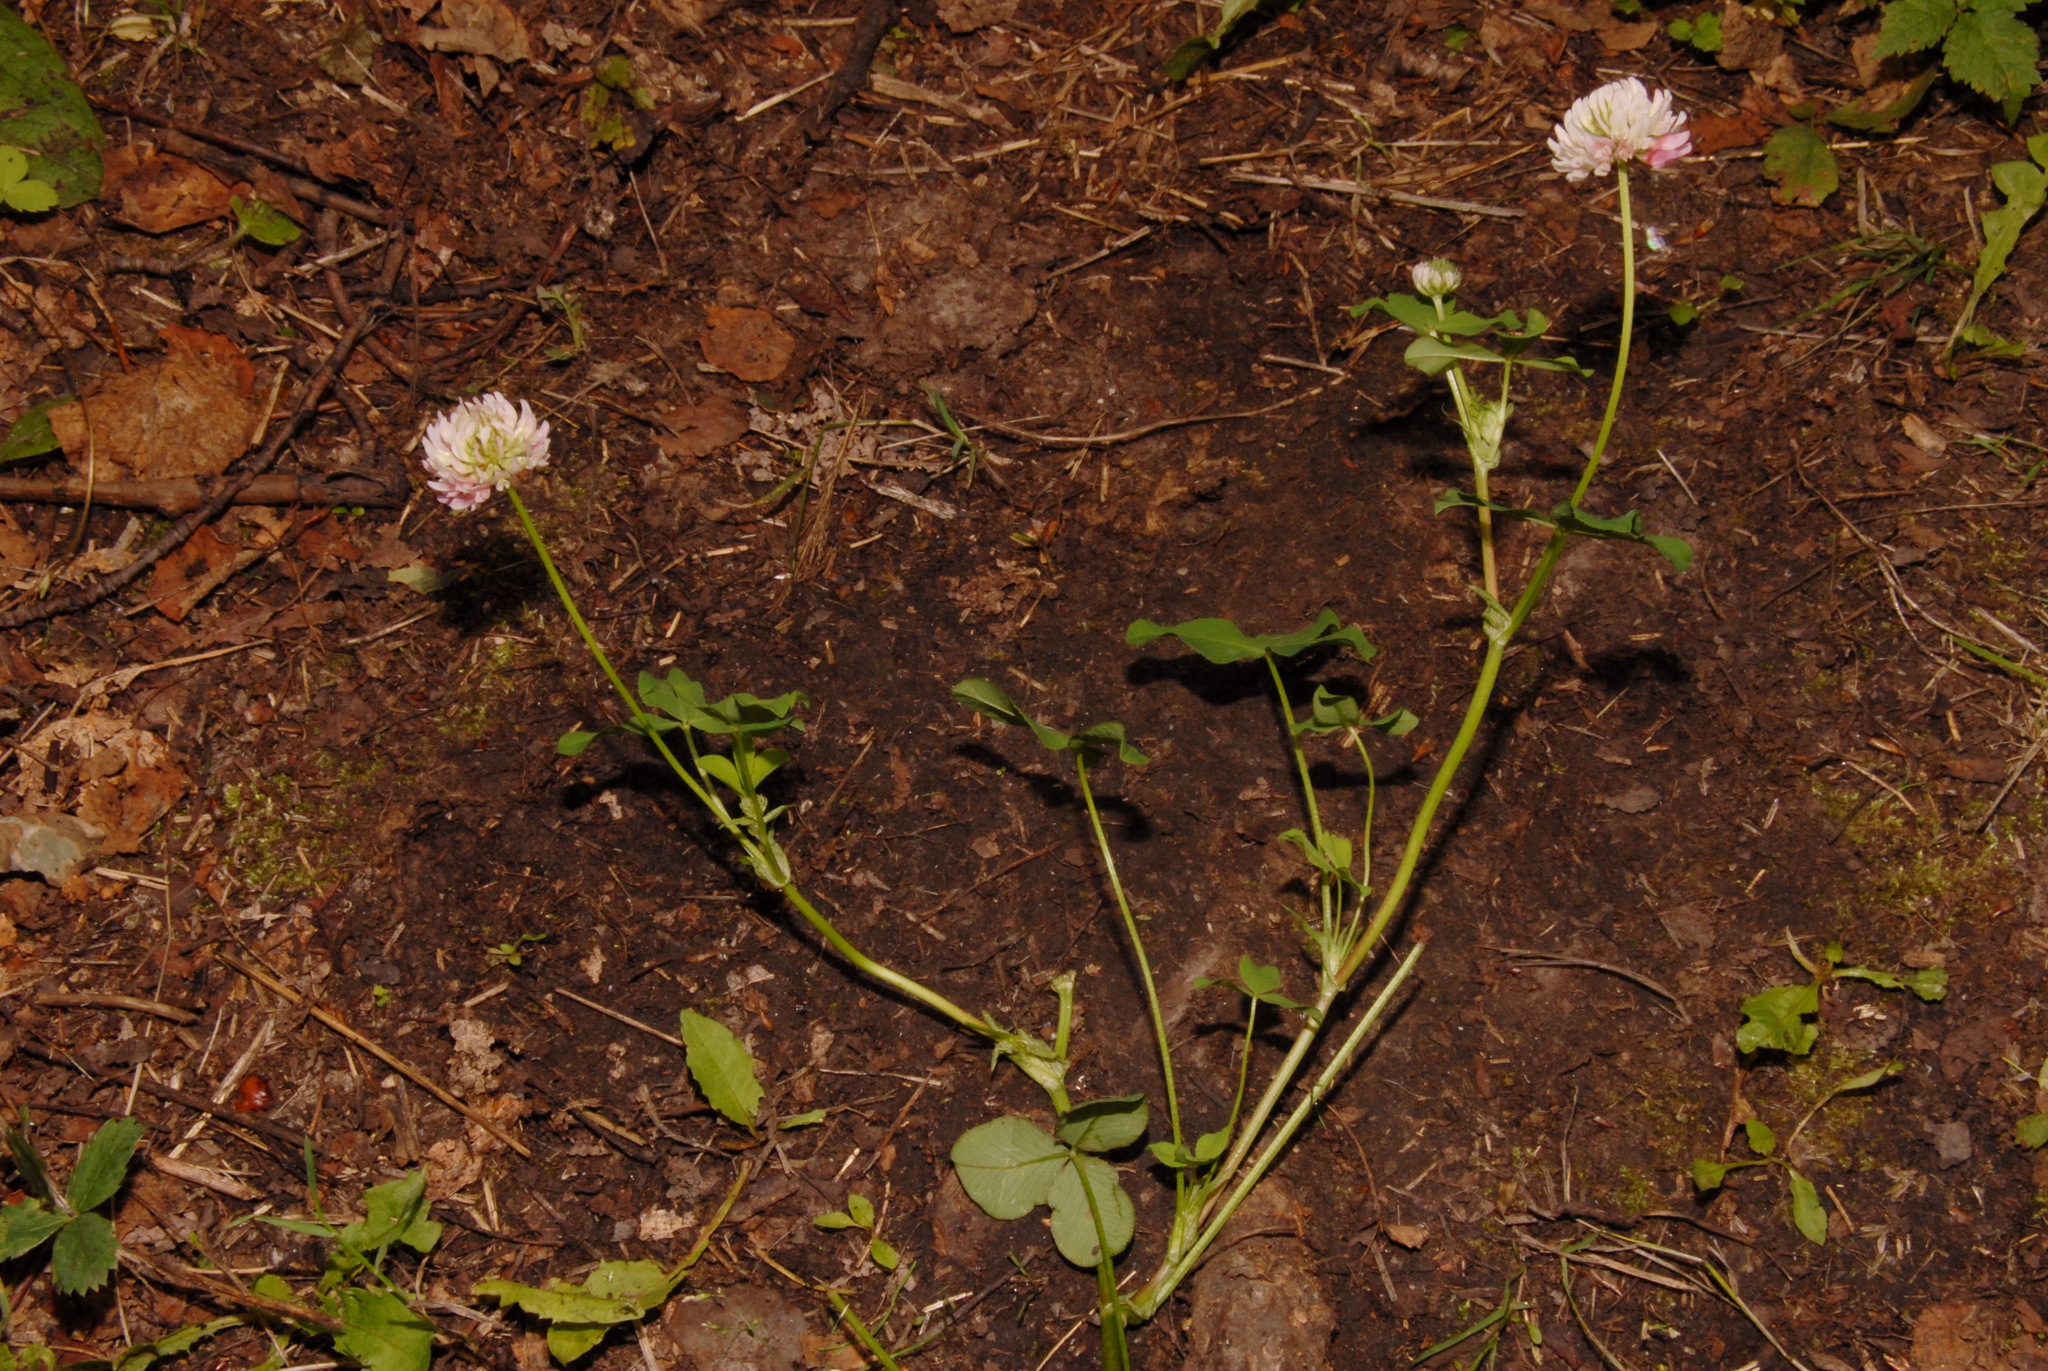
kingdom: Plantae
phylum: Tracheophyta
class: Magnoliopsida
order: Fabales
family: Fabaceae
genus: Trifolium
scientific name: Trifolium hybridum
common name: Alsike clover
